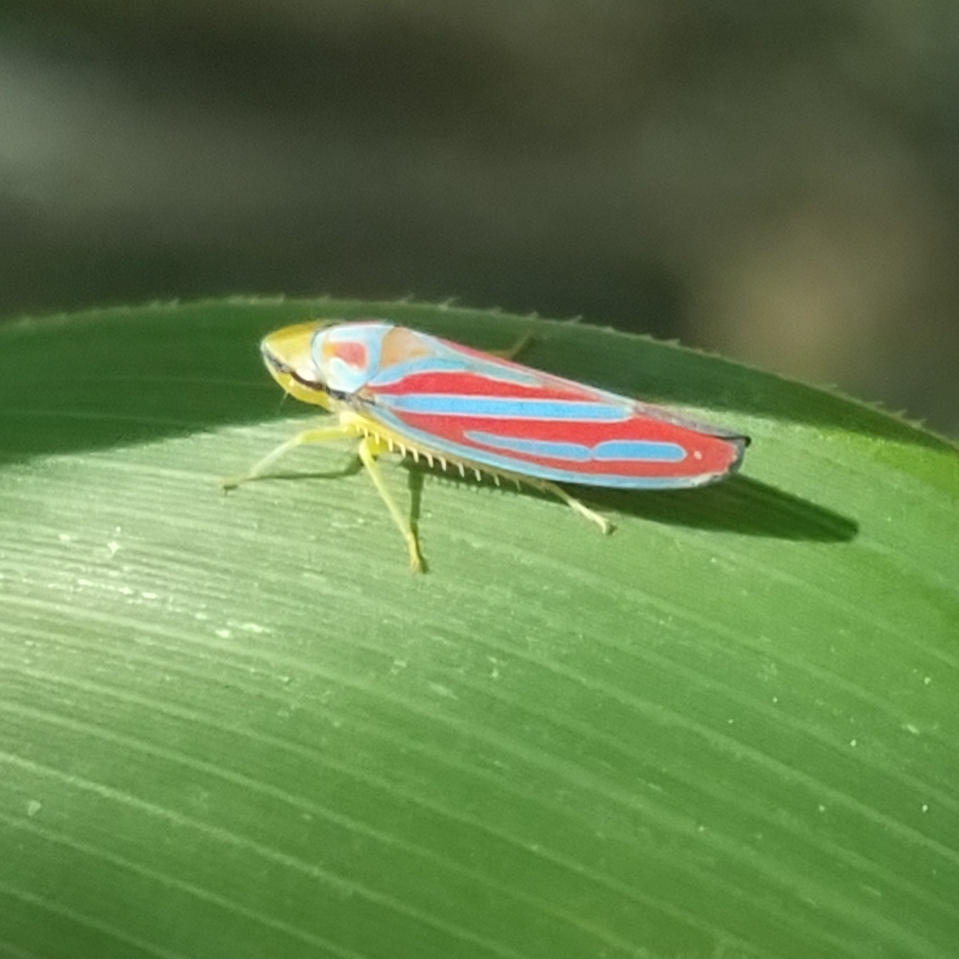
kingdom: Animalia
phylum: Arthropoda
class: Insecta
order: Hemiptera
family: Cicadellidae
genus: Graphocephala
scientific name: Graphocephala coccinea
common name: Candy-striped leafhopper
